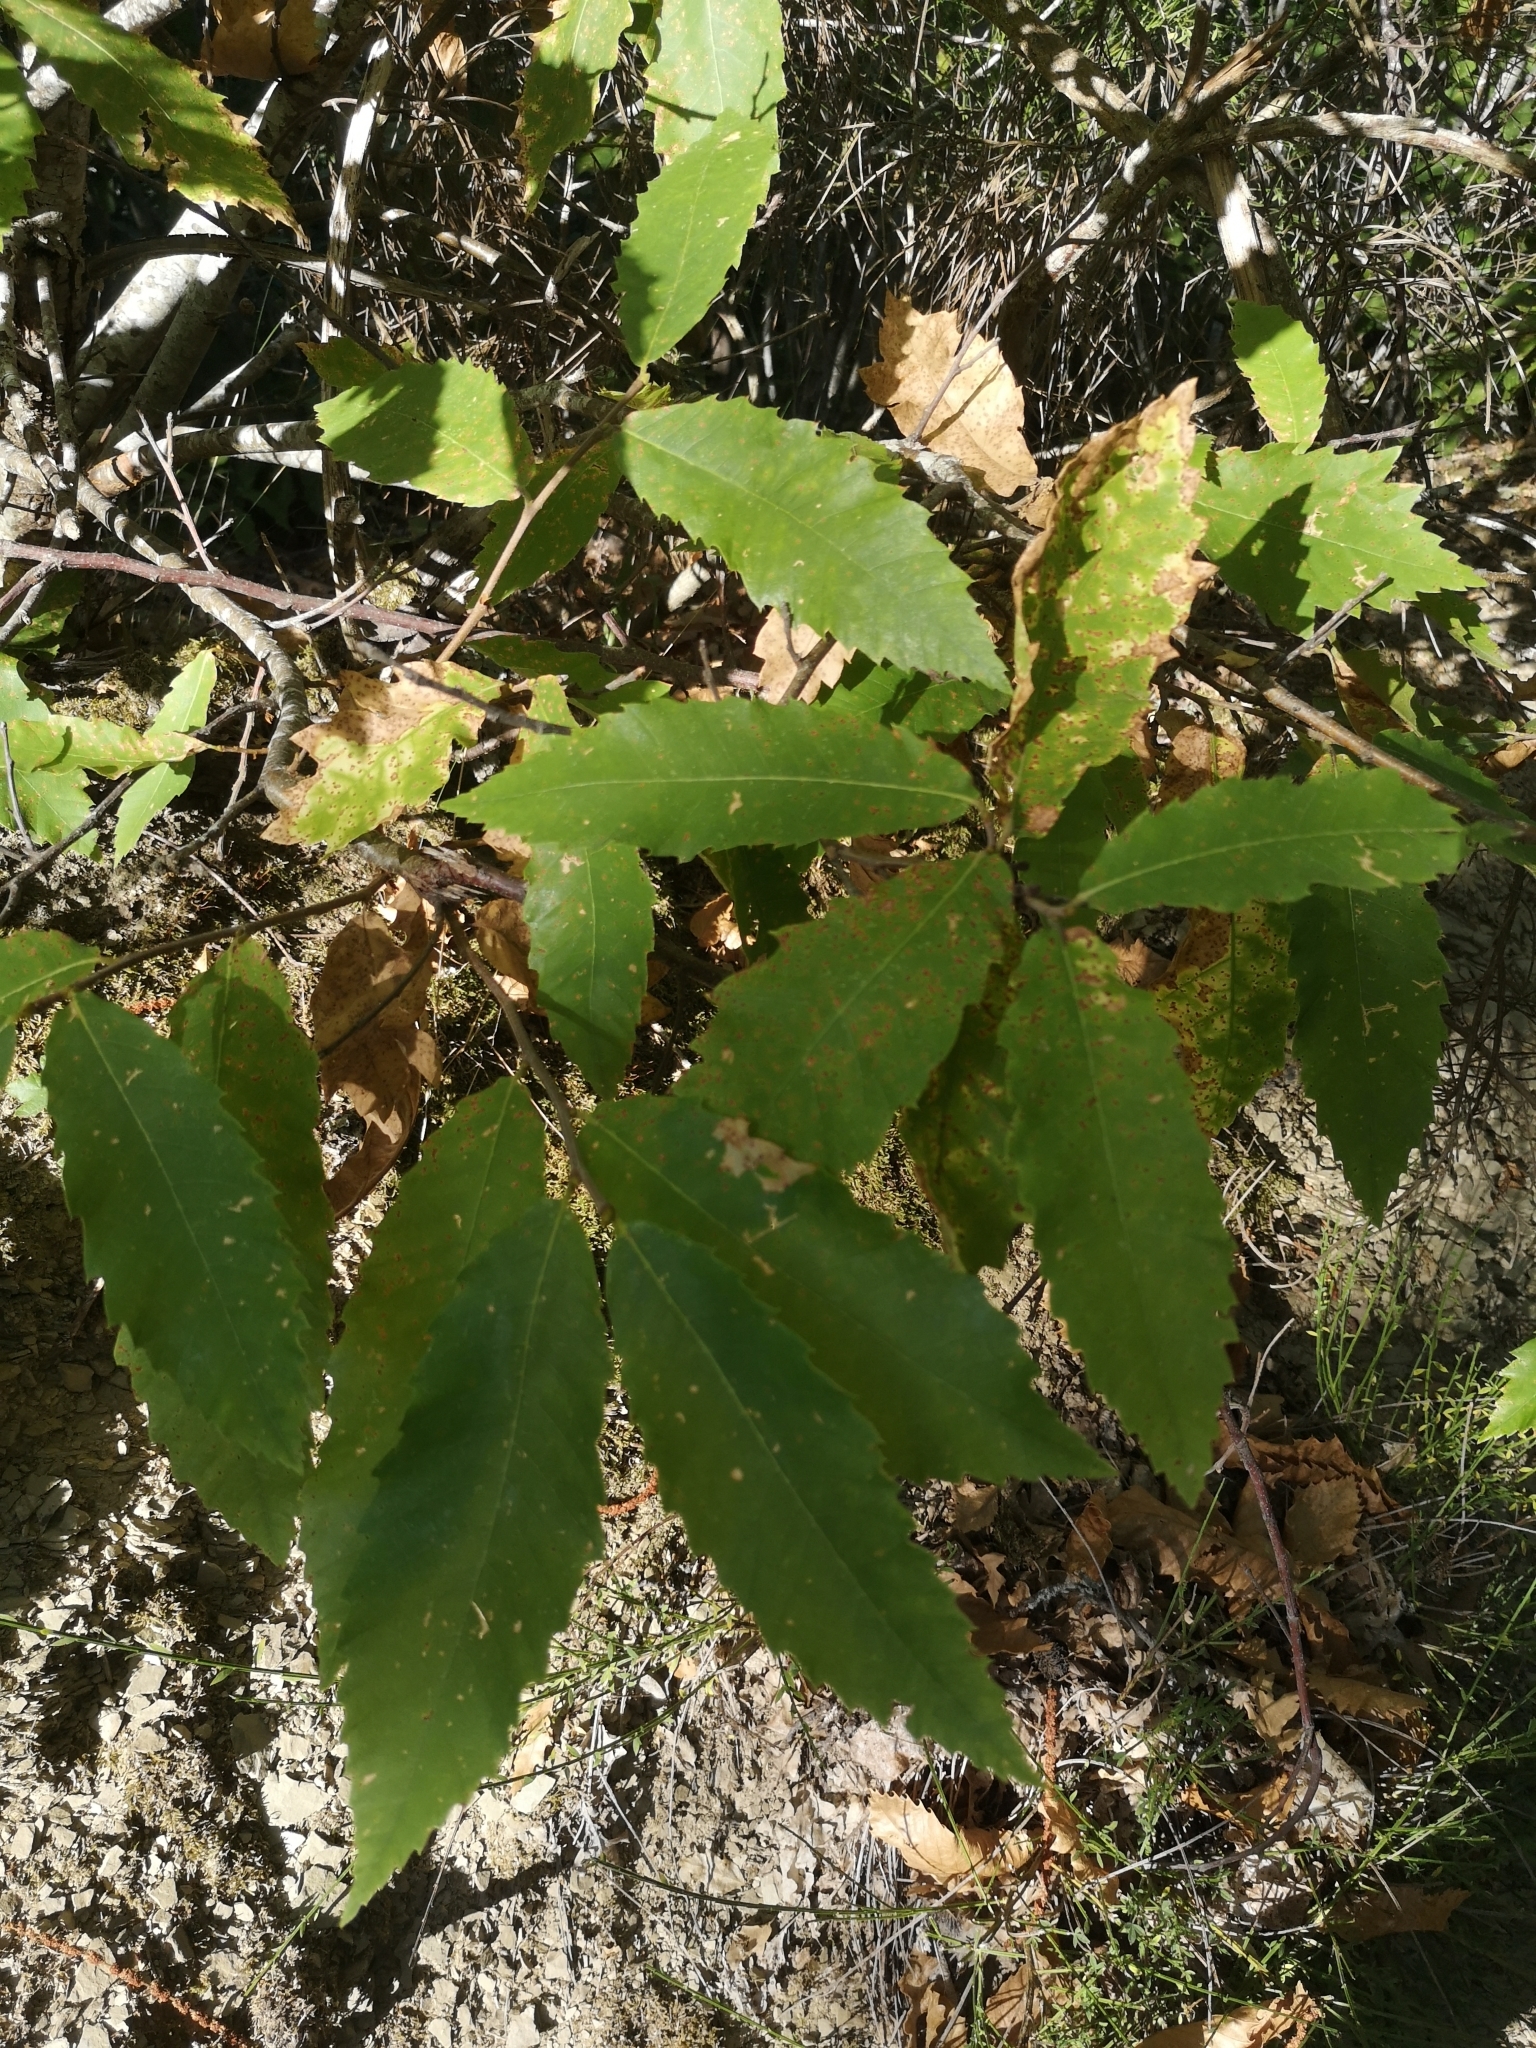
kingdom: Plantae
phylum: Tracheophyta
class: Magnoliopsida
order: Fagales
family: Fagaceae
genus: Castanea
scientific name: Castanea sativa
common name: Sweet chestnut
